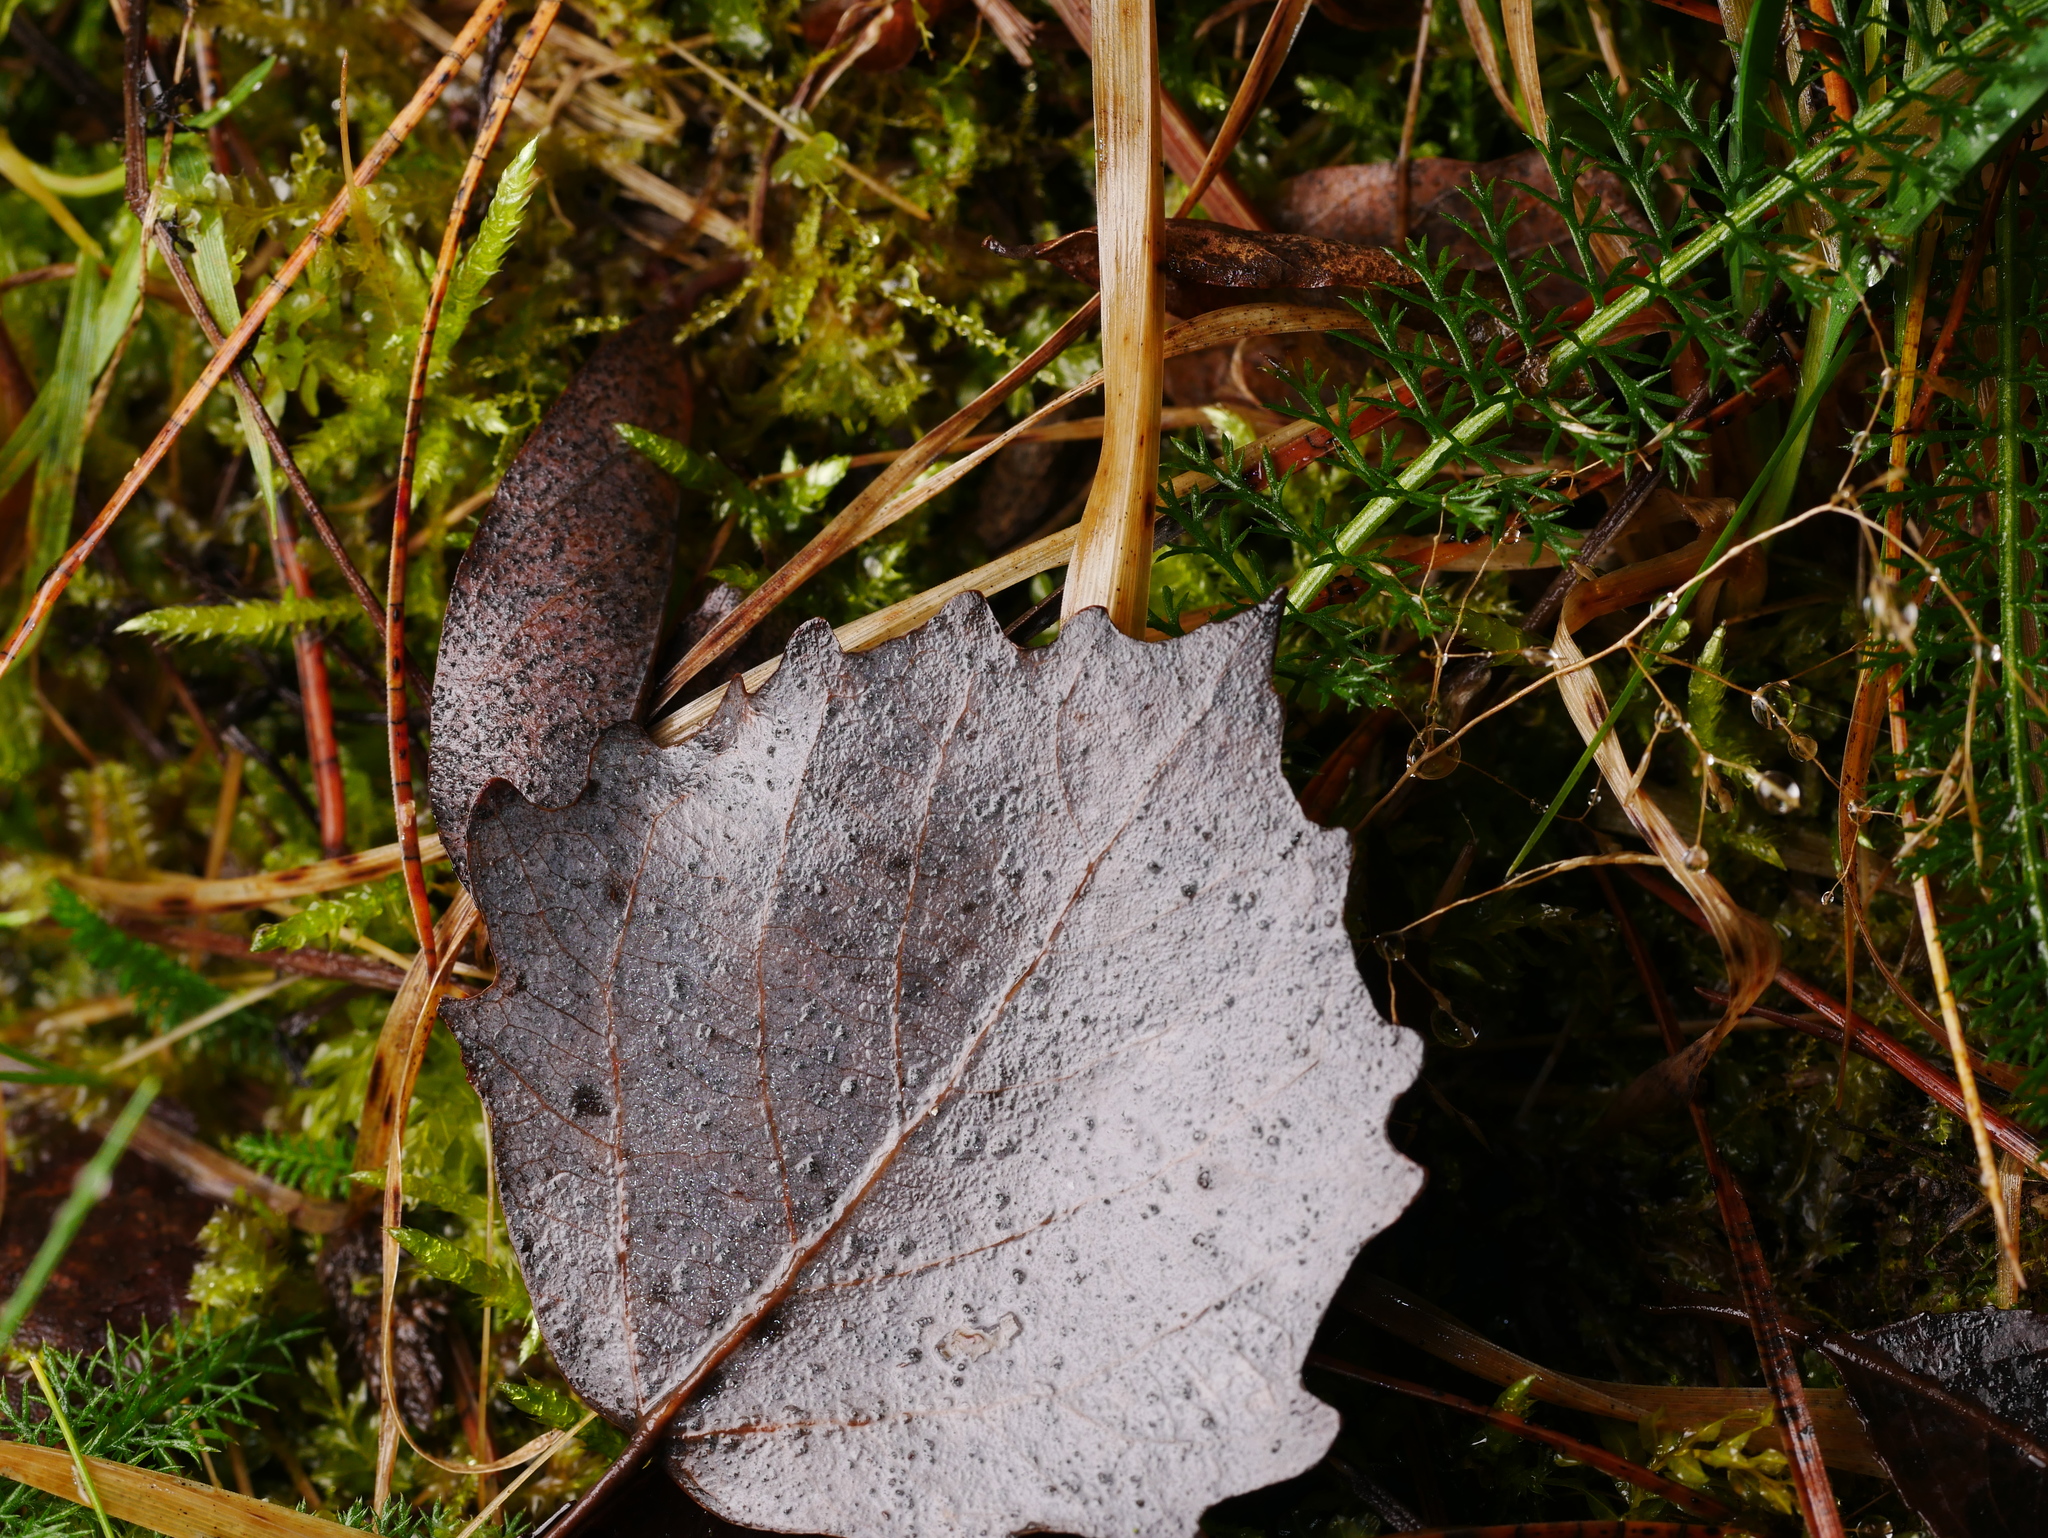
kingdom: Plantae
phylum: Tracheophyta
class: Magnoliopsida
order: Malpighiales
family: Salicaceae
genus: Populus
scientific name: Populus tremula
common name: European aspen
